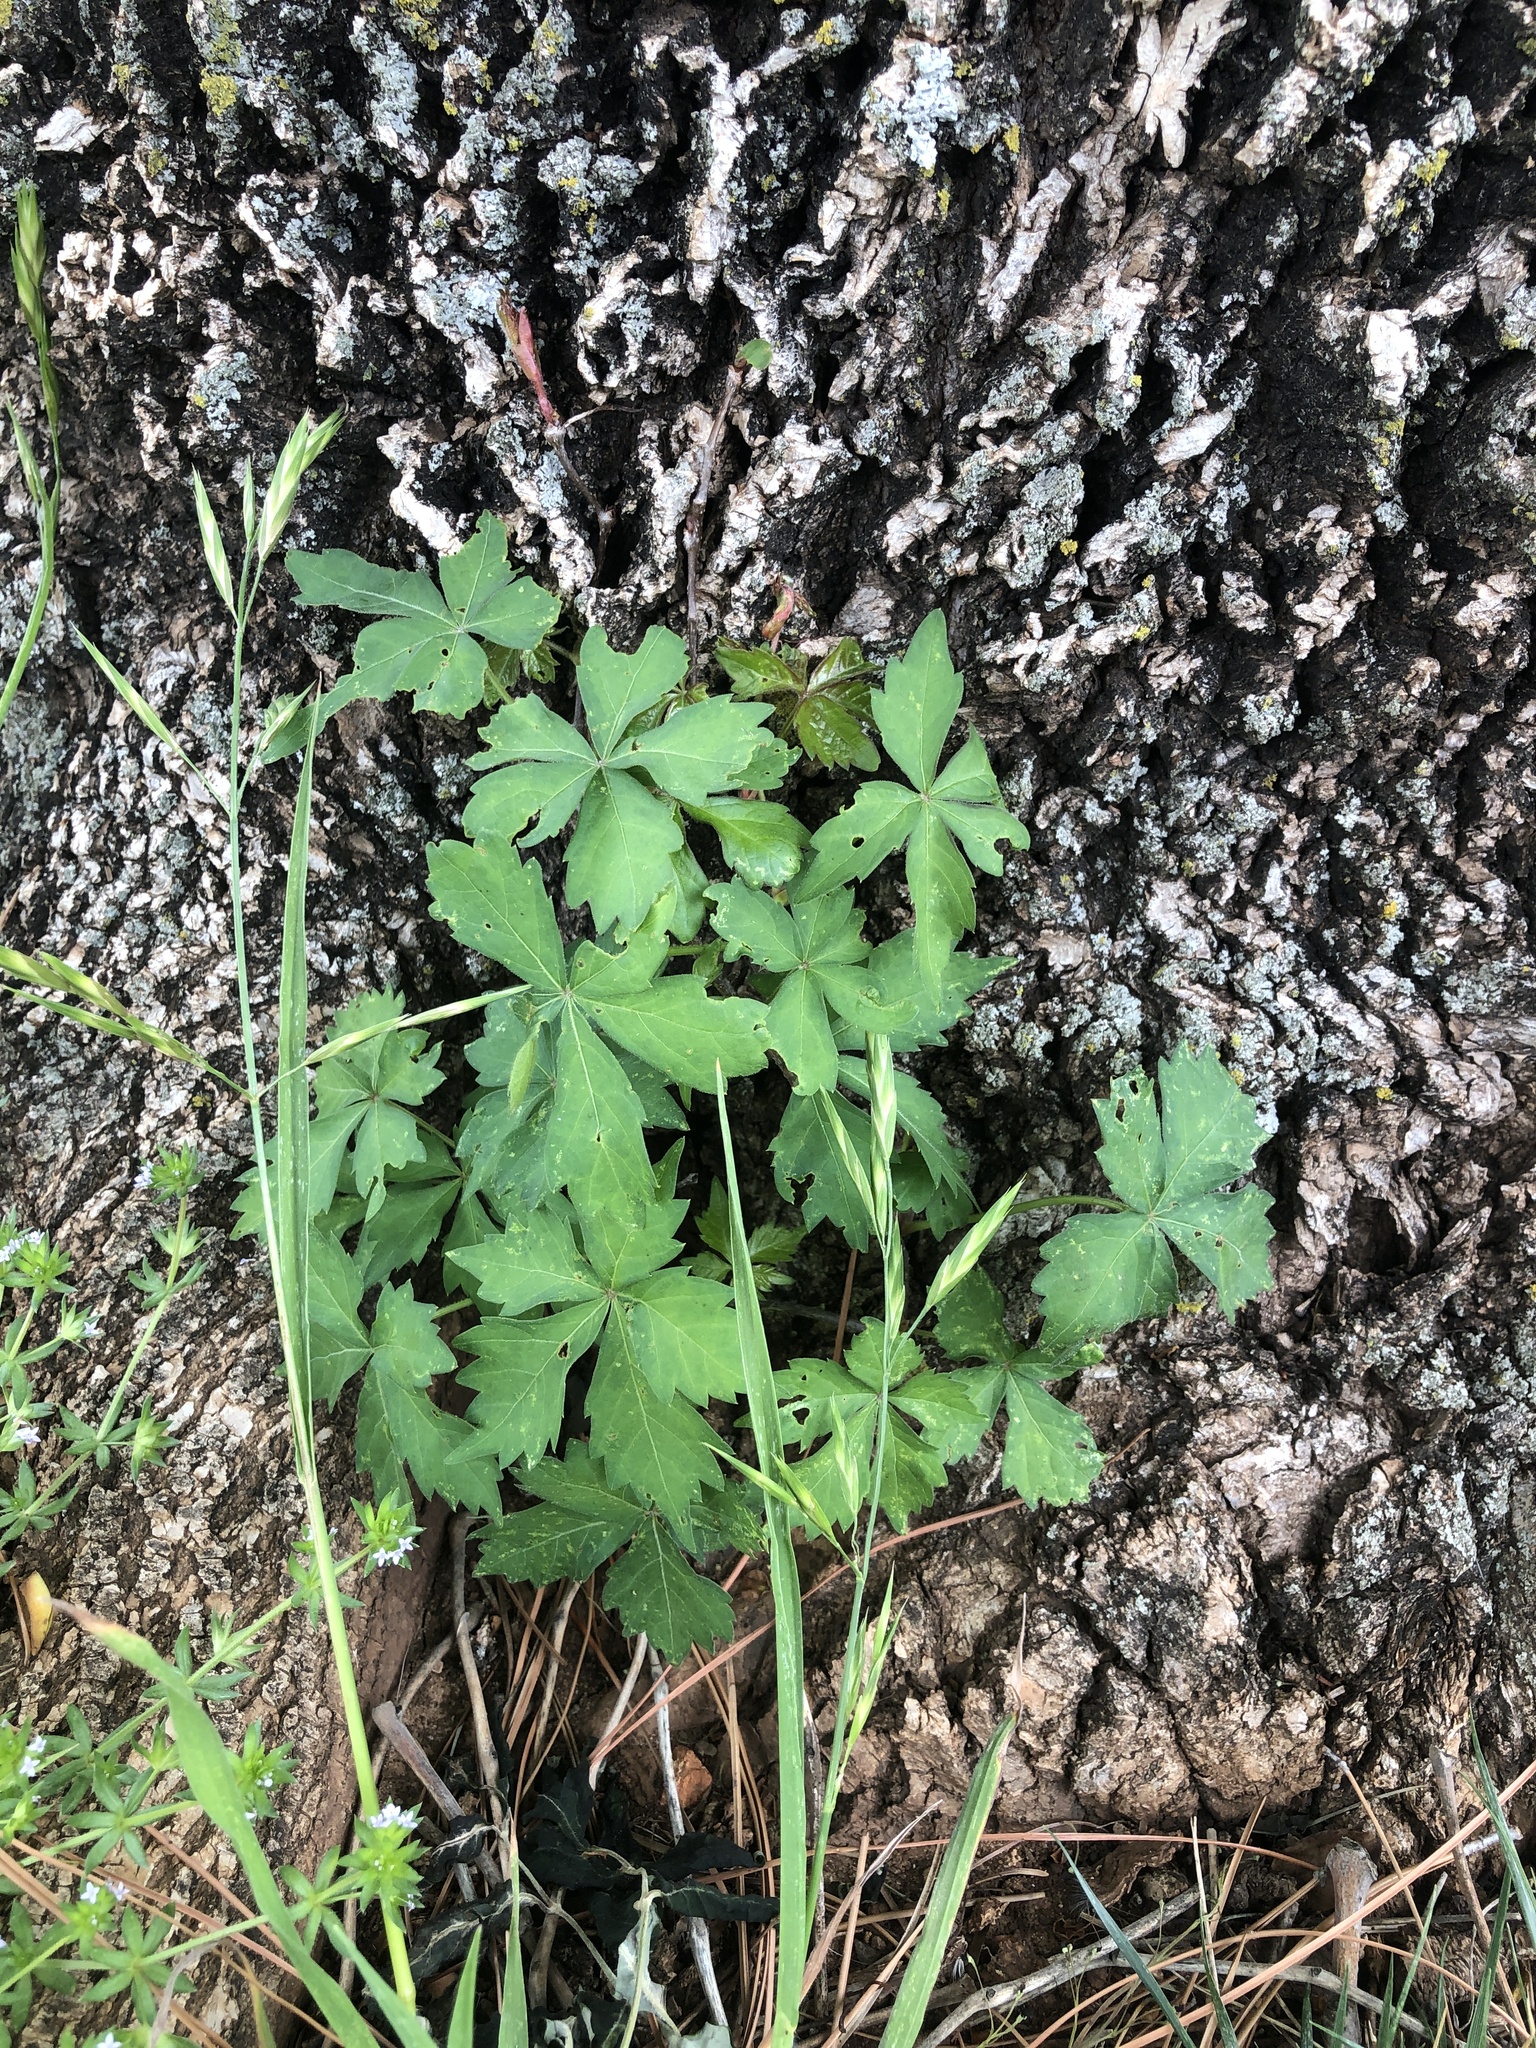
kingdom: Plantae
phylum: Tracheophyta
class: Magnoliopsida
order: Vitales
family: Vitaceae
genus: Parthenocissus
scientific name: Parthenocissus quinquefolia
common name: Virginia-creeper
